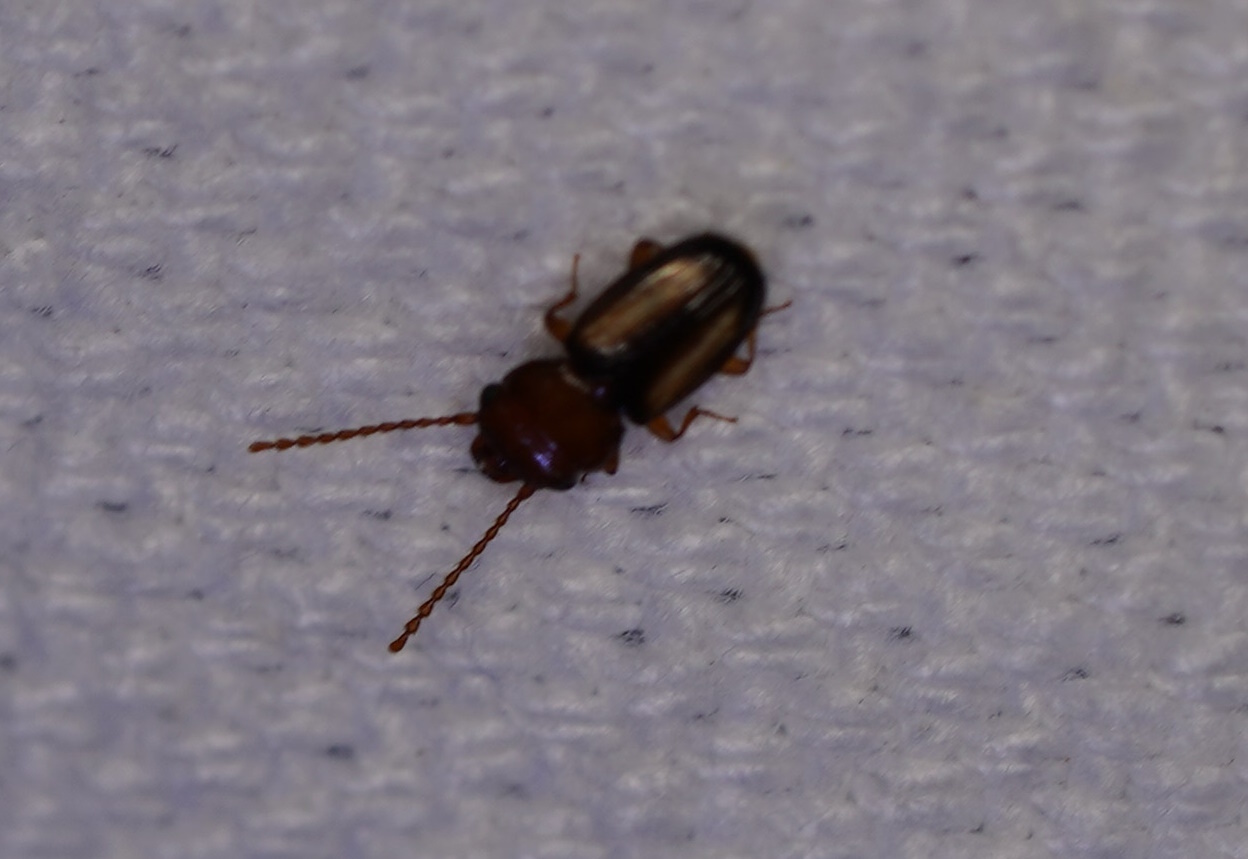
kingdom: Animalia
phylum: Arthropoda
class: Insecta
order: Coleoptera
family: Laemophloeidae
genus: Laemophloeus
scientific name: Laemophloeus terminalis
